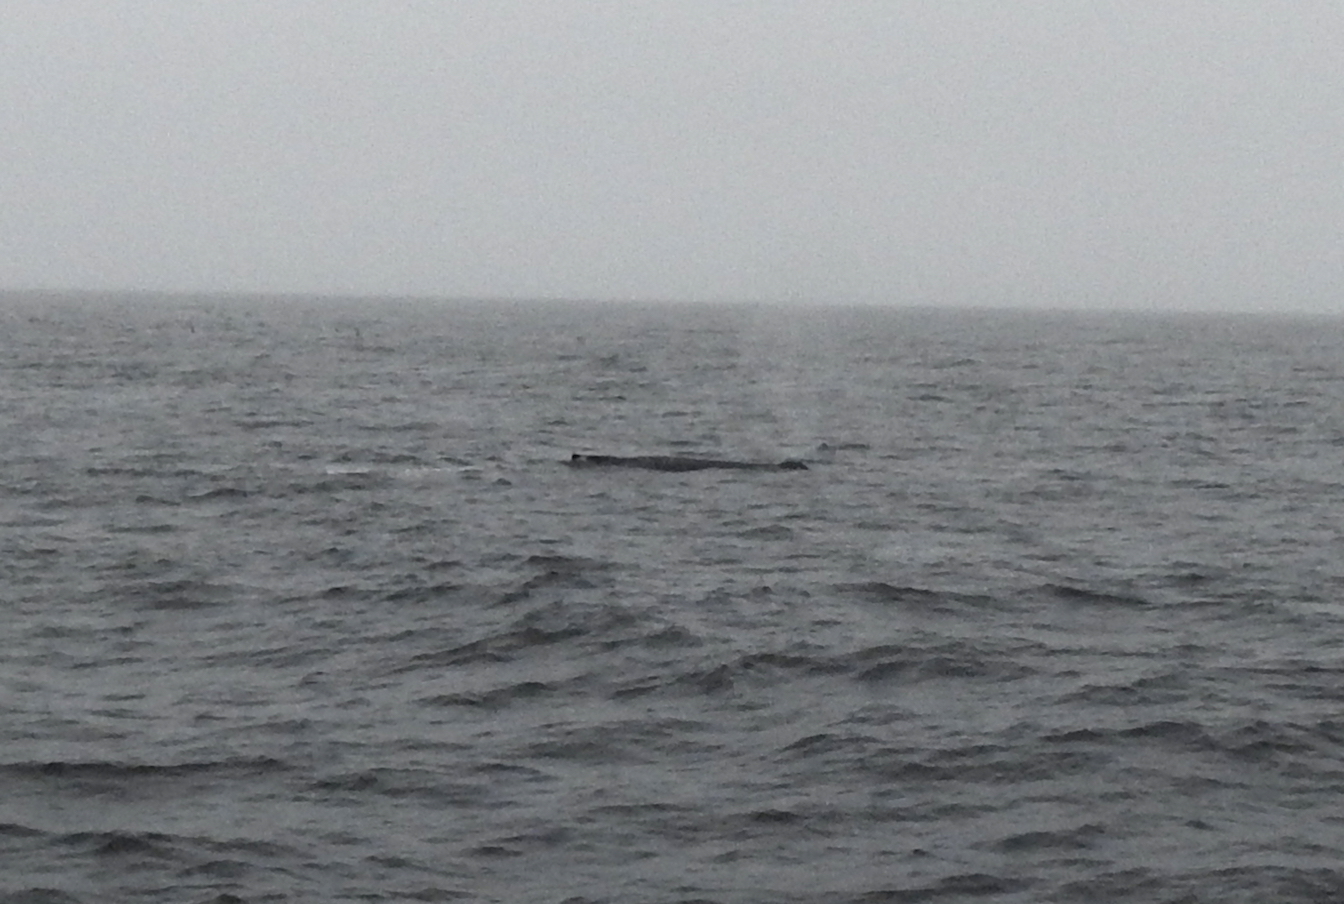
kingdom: Animalia
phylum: Chordata
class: Mammalia
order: Cetacea
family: Balaenopteridae
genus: Megaptera
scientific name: Megaptera novaeangliae
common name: Humpback whale
